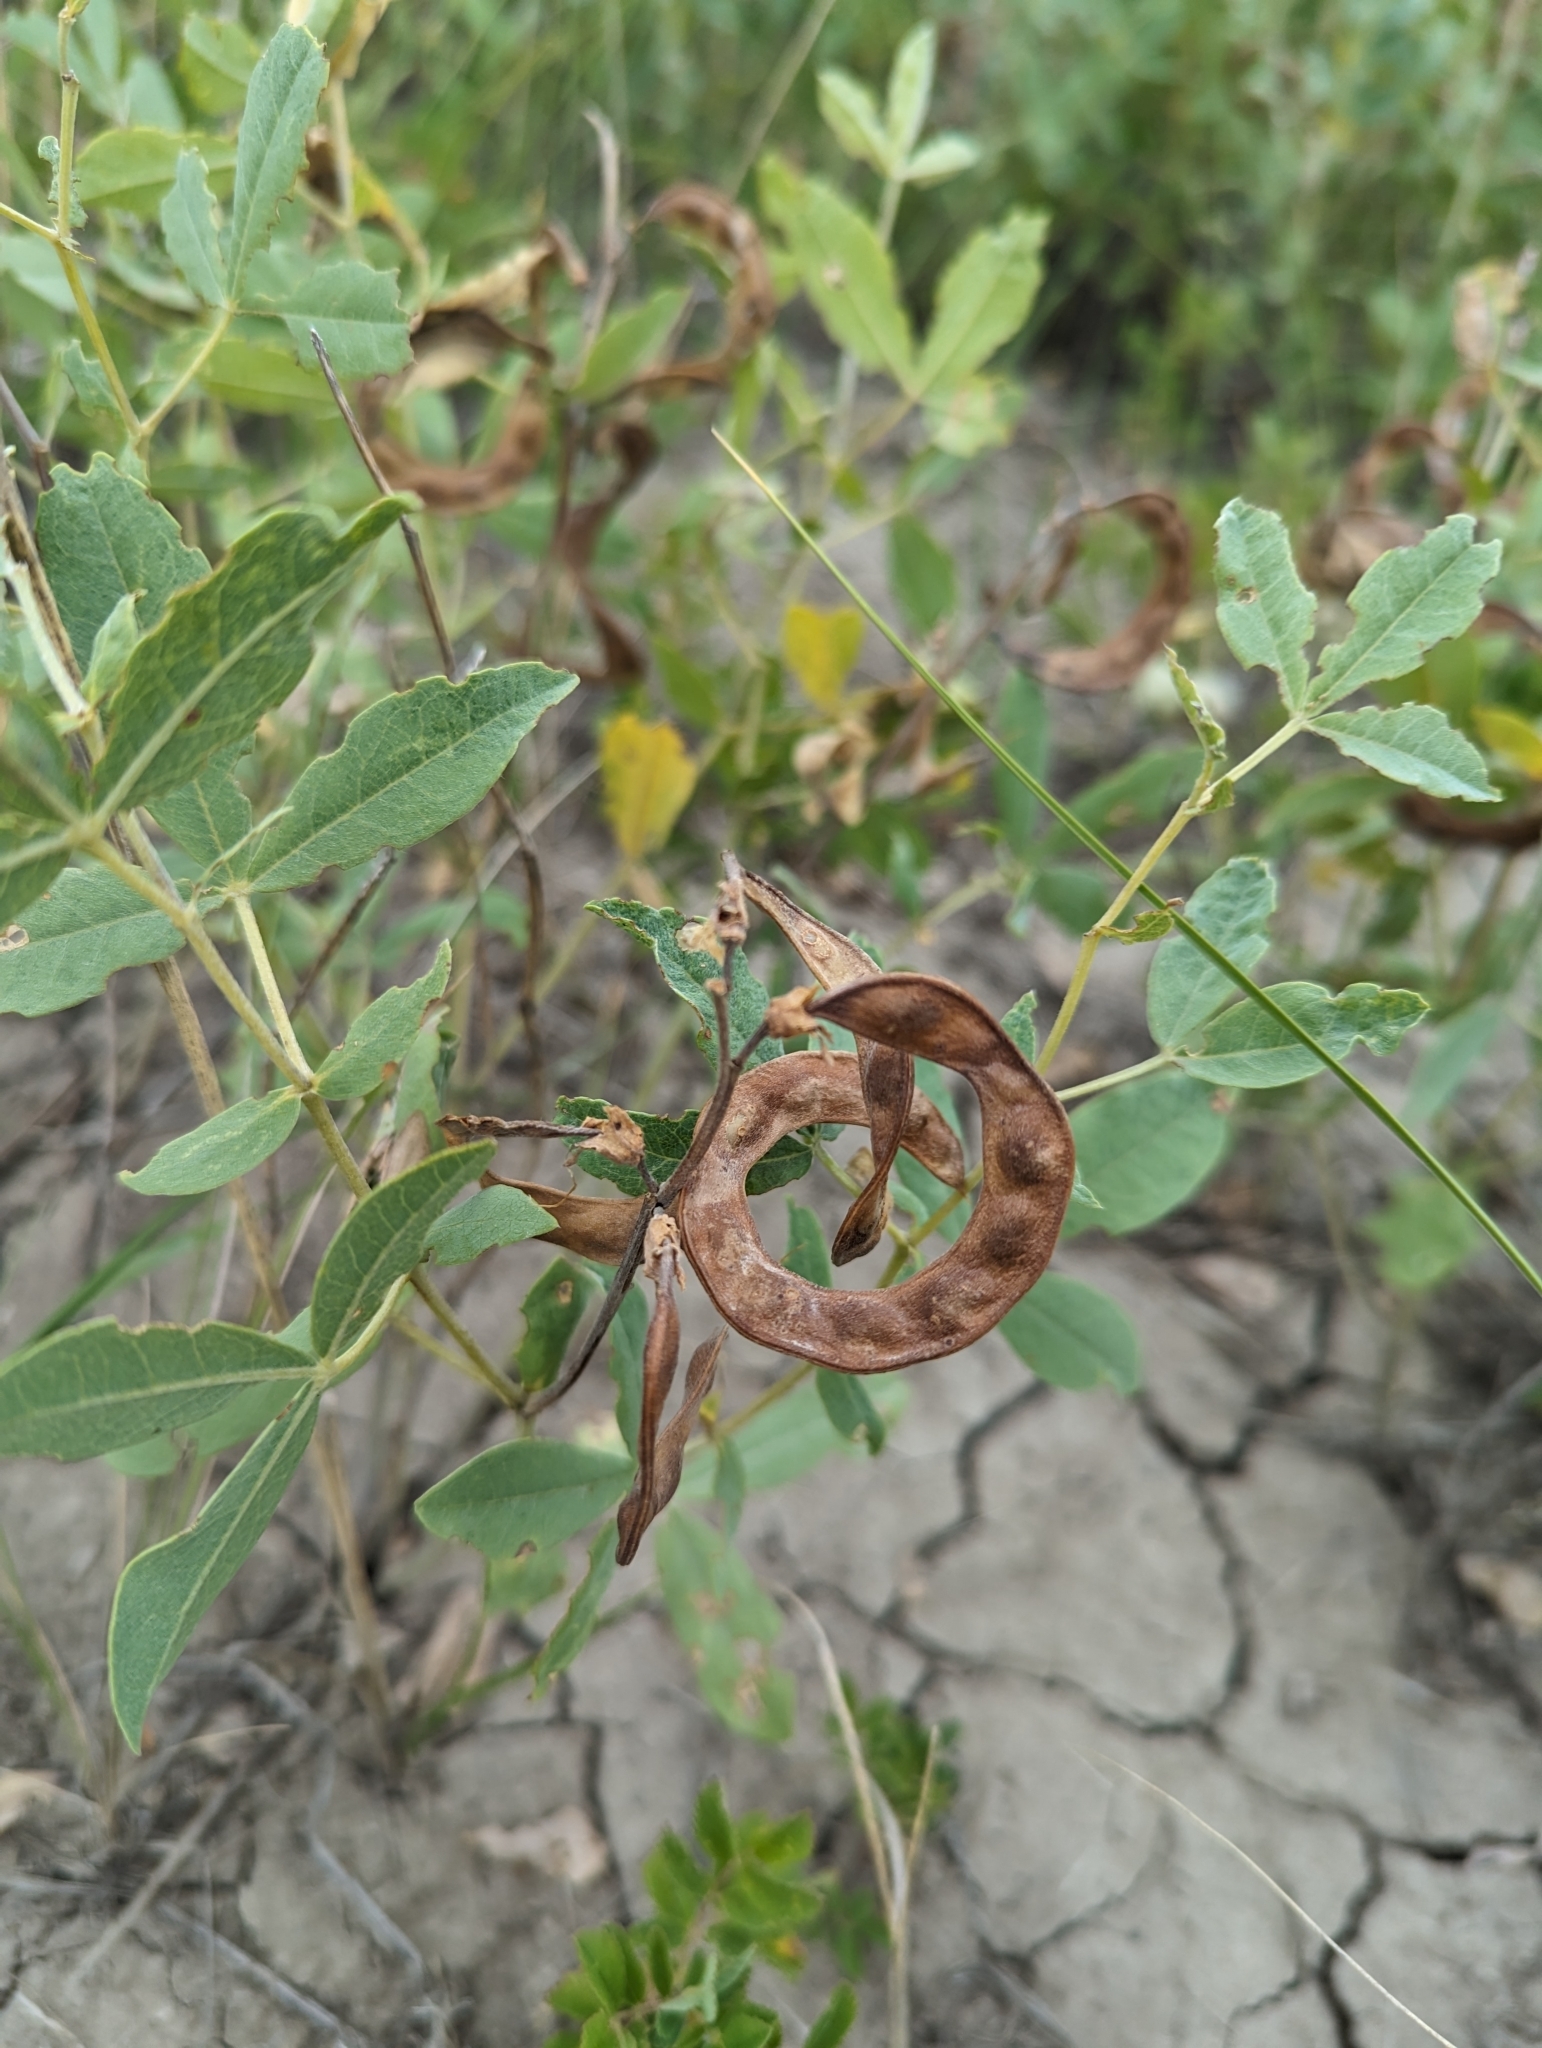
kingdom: Plantae
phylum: Tracheophyta
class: Magnoliopsida
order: Fabales
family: Fabaceae
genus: Thermopsis
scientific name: Thermopsis rhombifolia
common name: Circle-pod-pea
